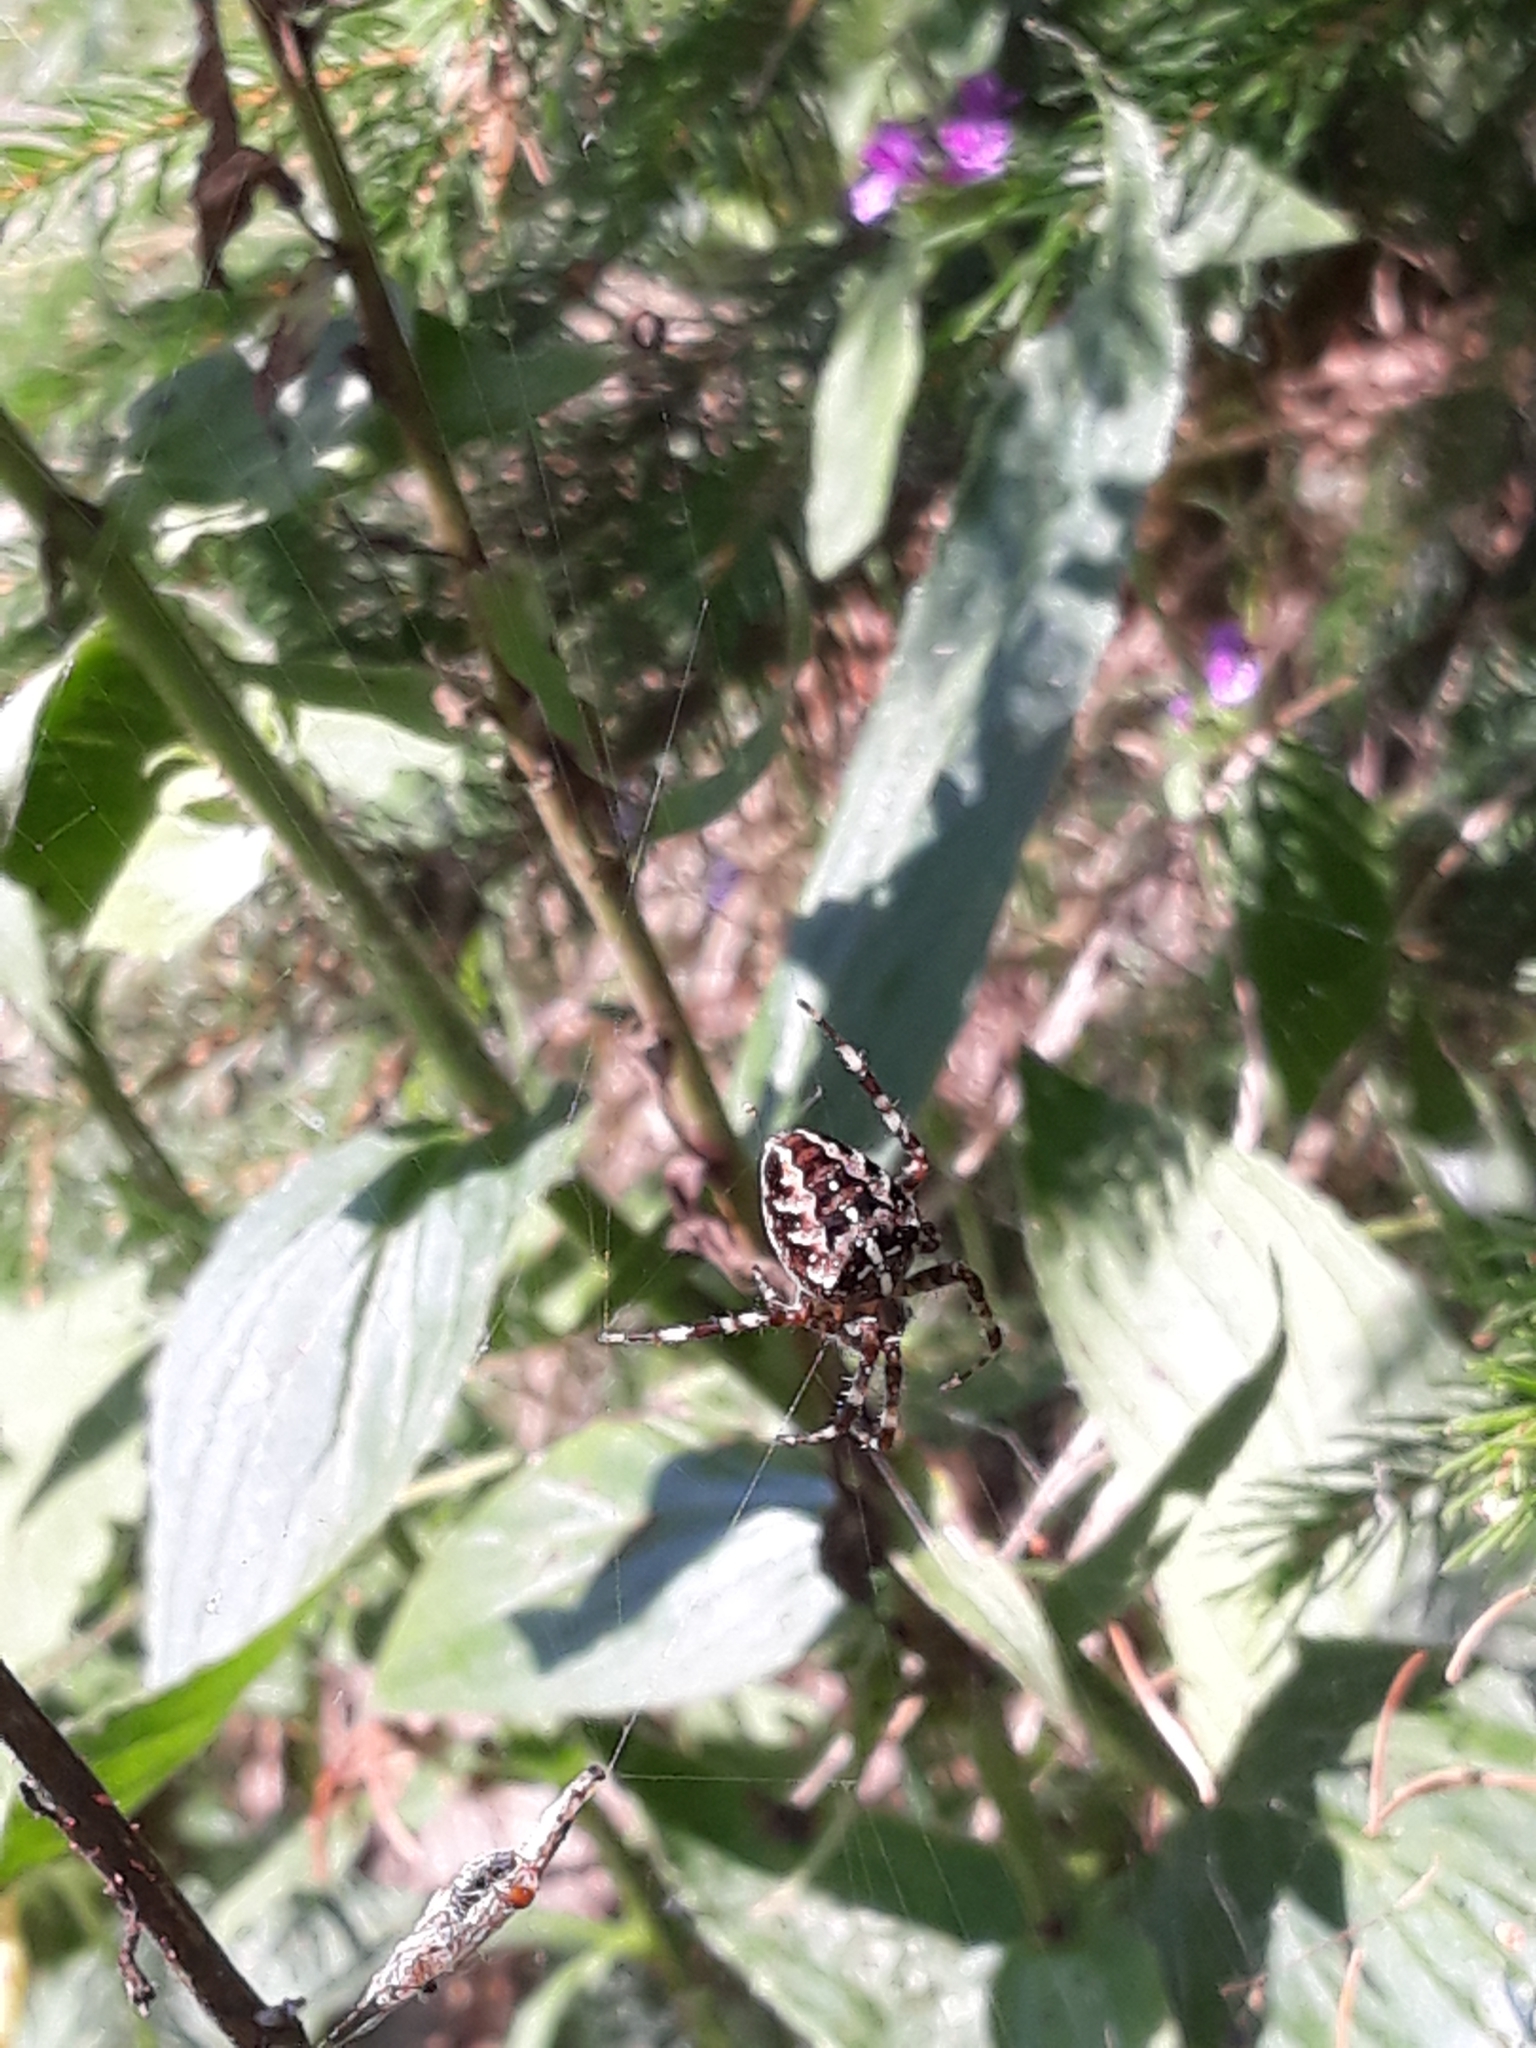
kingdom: Animalia
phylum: Arthropoda
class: Arachnida
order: Araneae
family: Araneidae
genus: Araneus
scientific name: Araneus diadematus
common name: Cross orbweaver
